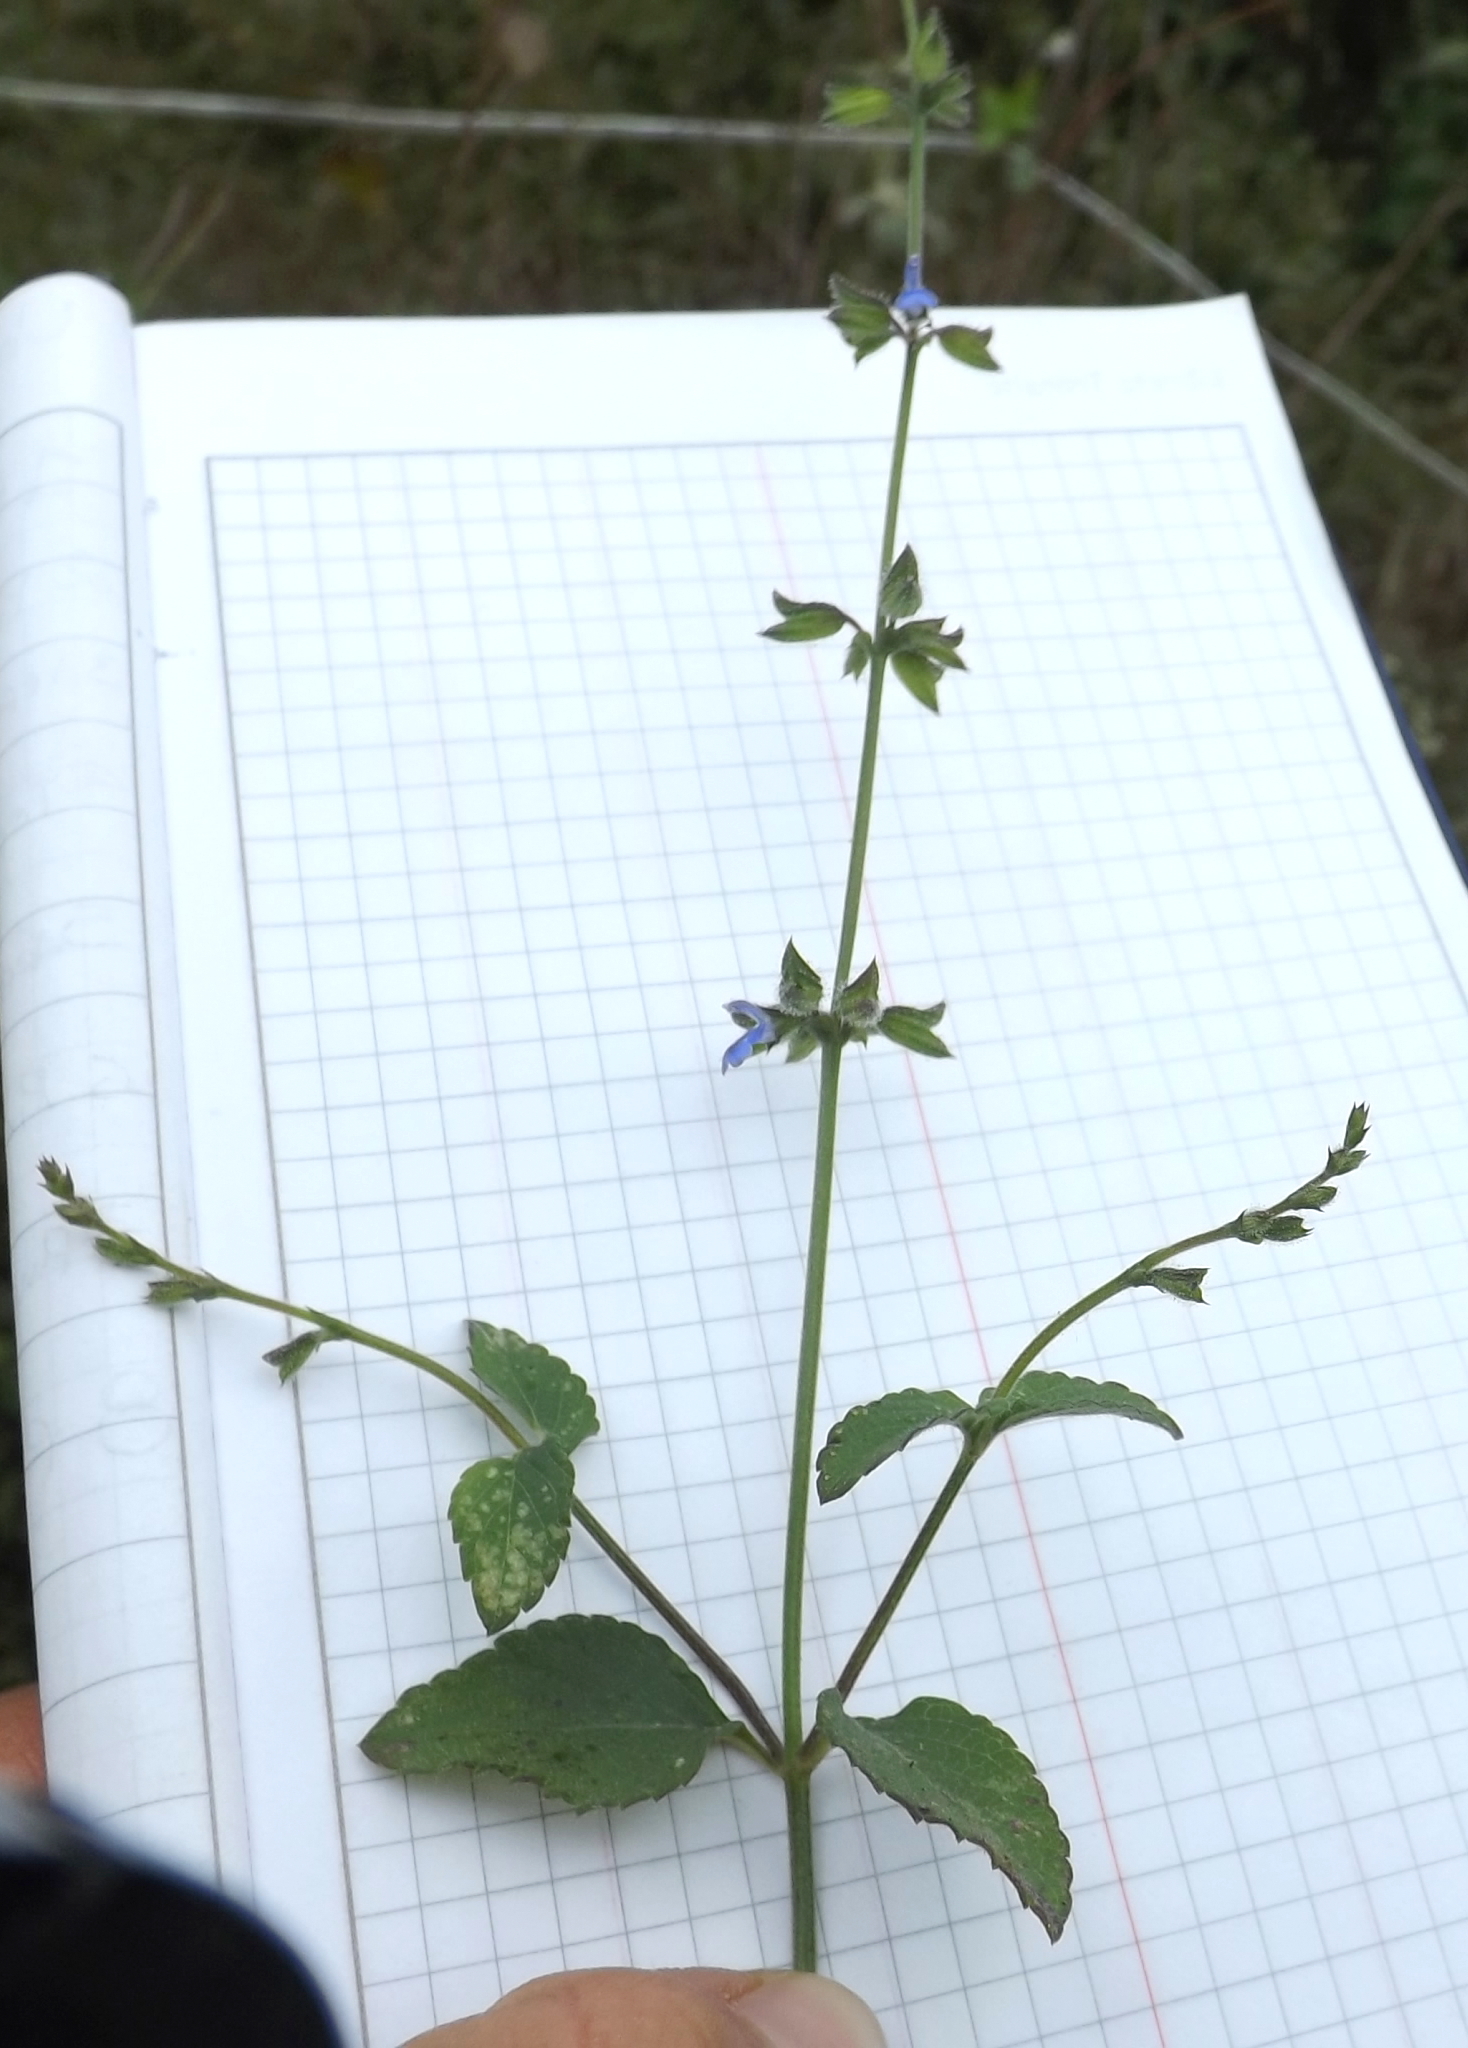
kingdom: Plantae
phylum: Tracheophyta
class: Magnoliopsida
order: Lamiales
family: Lamiaceae
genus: Salvia
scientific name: Salvia misella
